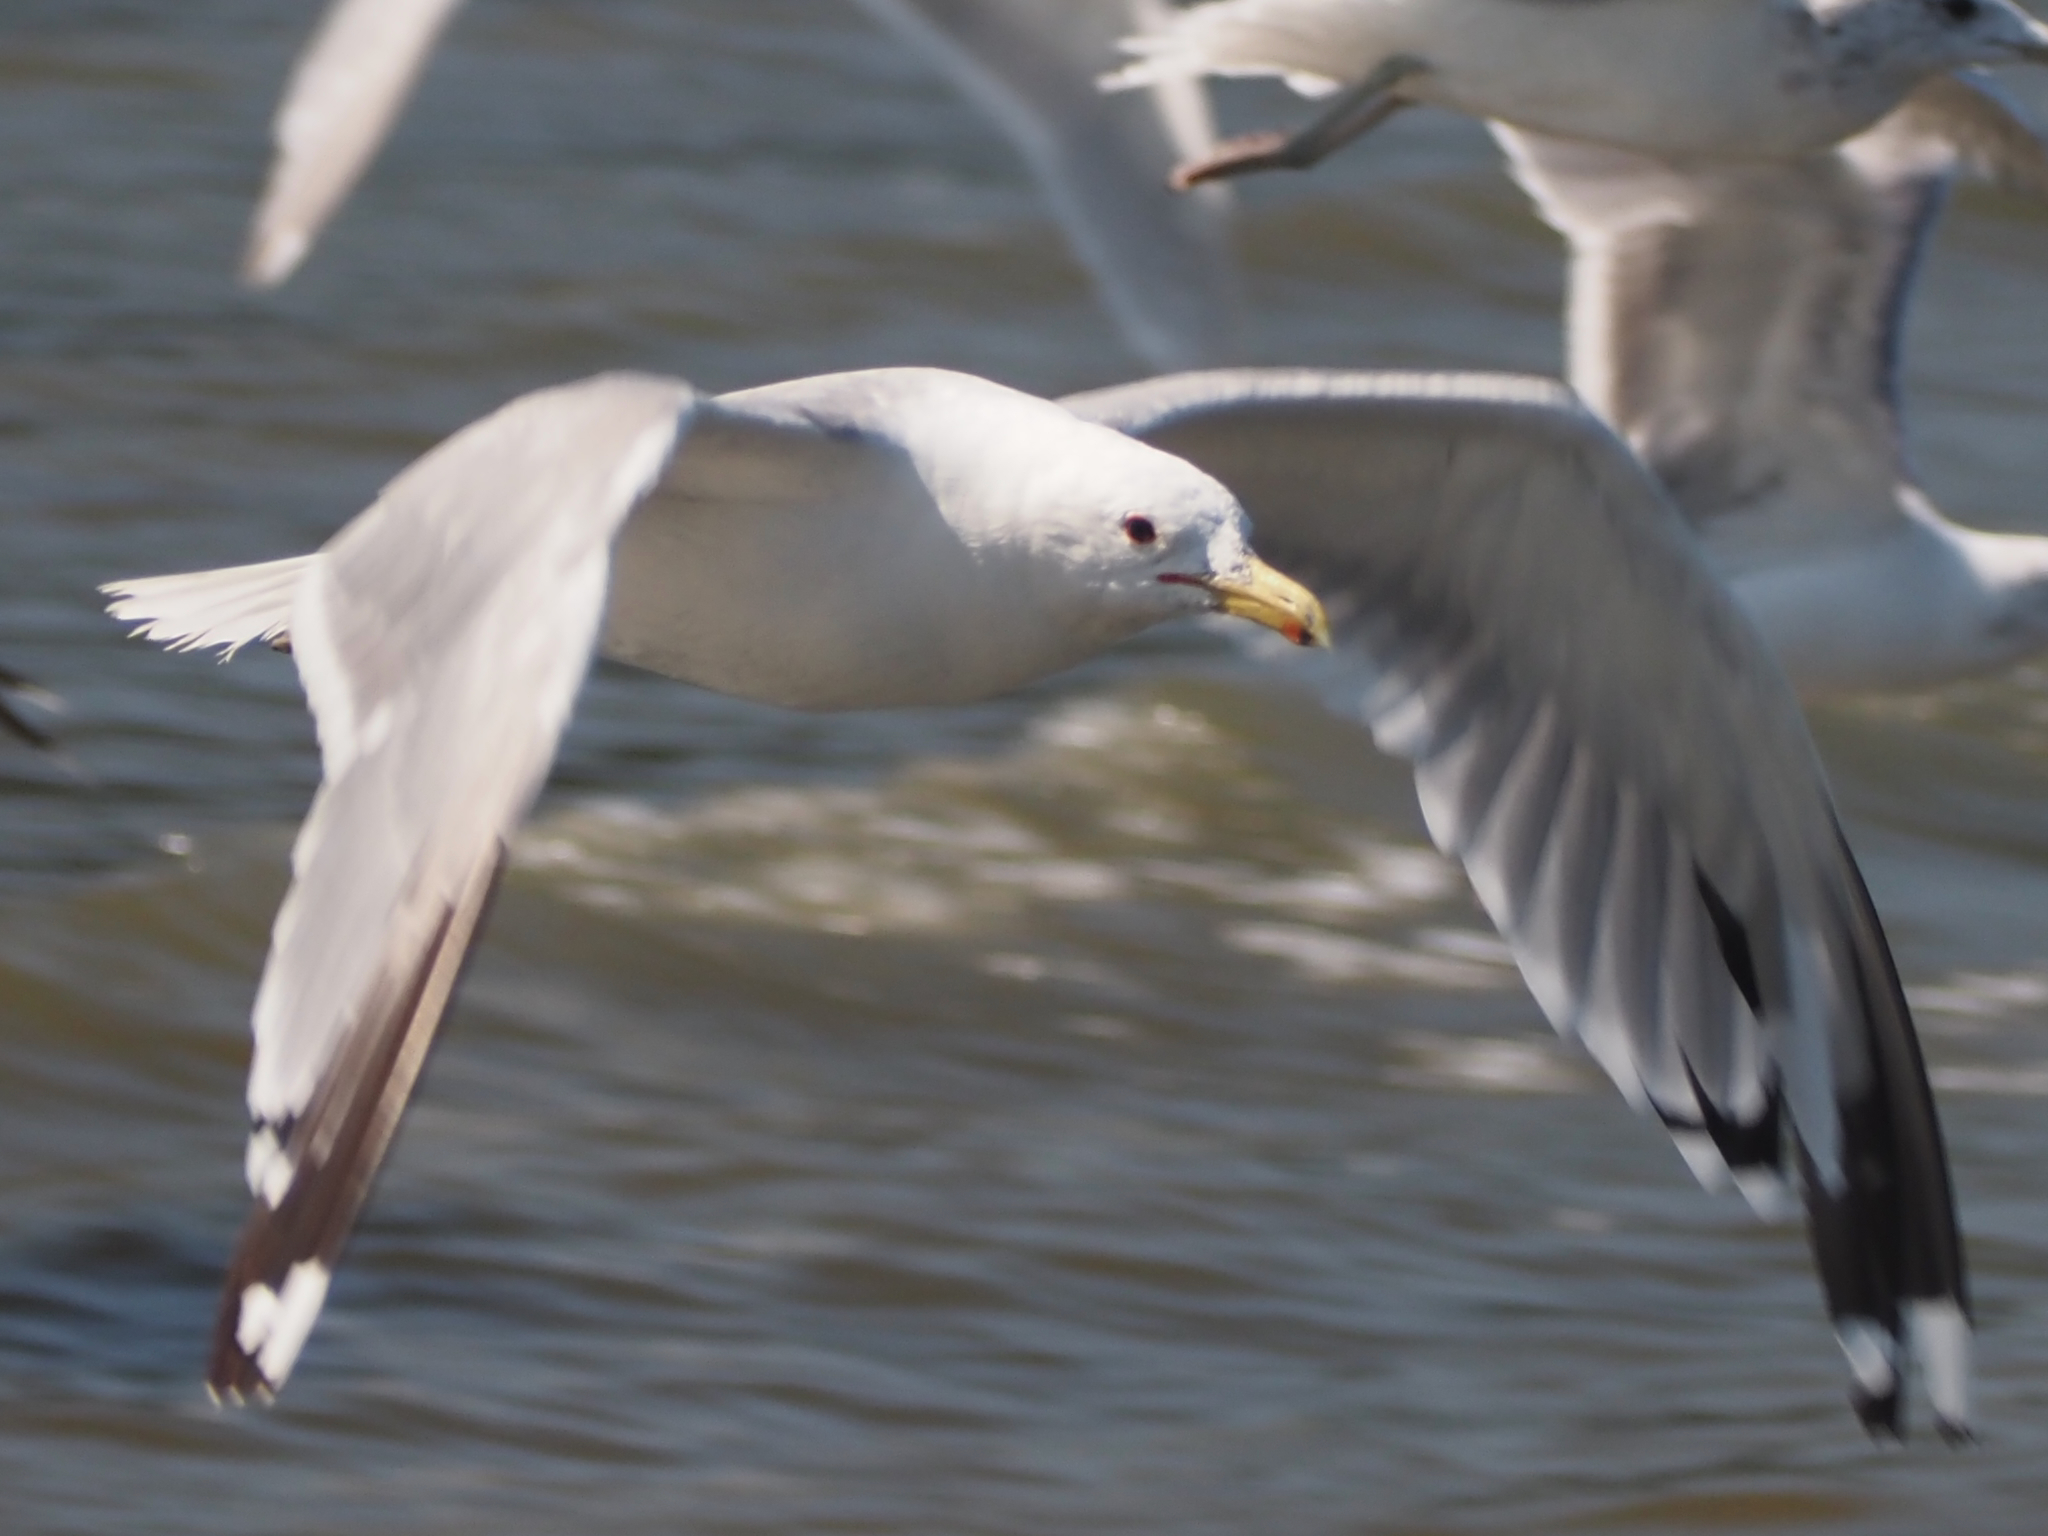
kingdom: Animalia
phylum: Chordata
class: Aves
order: Charadriiformes
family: Laridae
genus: Larus
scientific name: Larus californicus
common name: California gull
